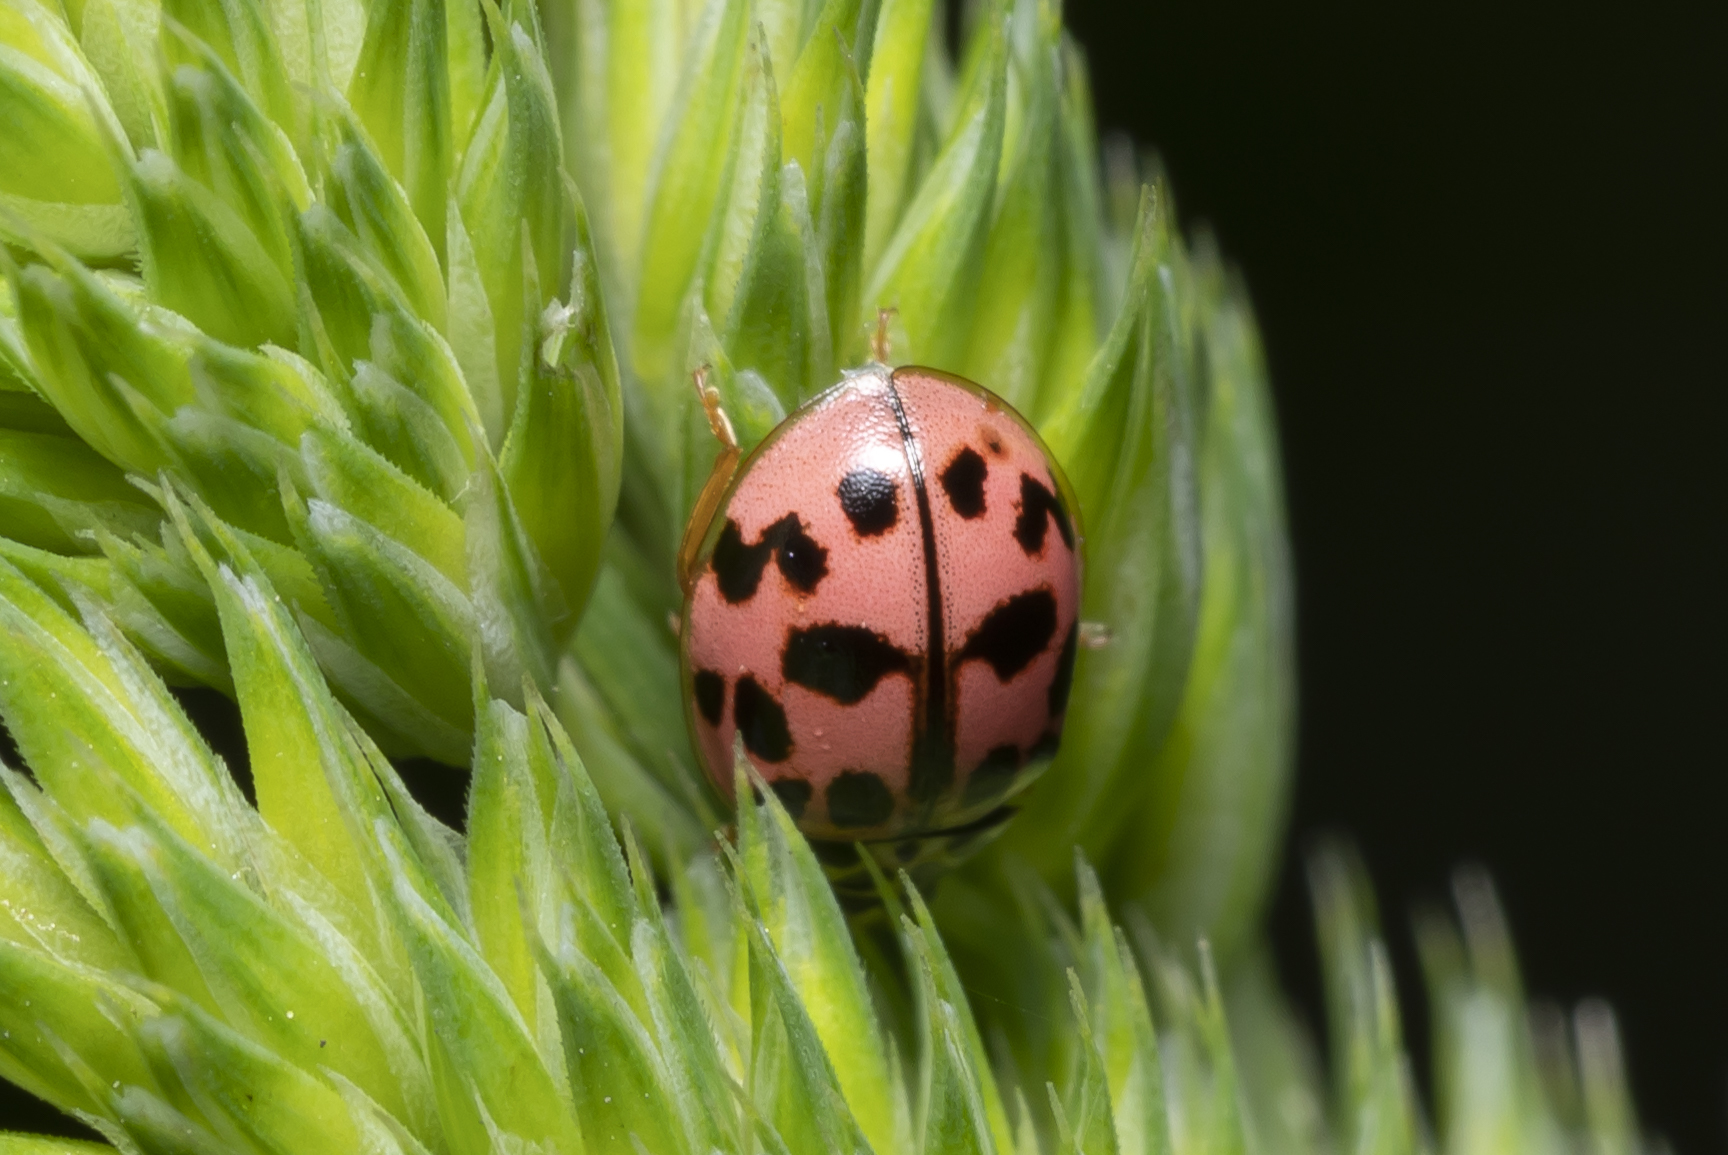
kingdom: Animalia
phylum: Arthropoda
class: Insecta
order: Coleoptera
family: Coccinellidae
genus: Oenopia
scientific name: Oenopia conglobata
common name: Ladybird beetle
